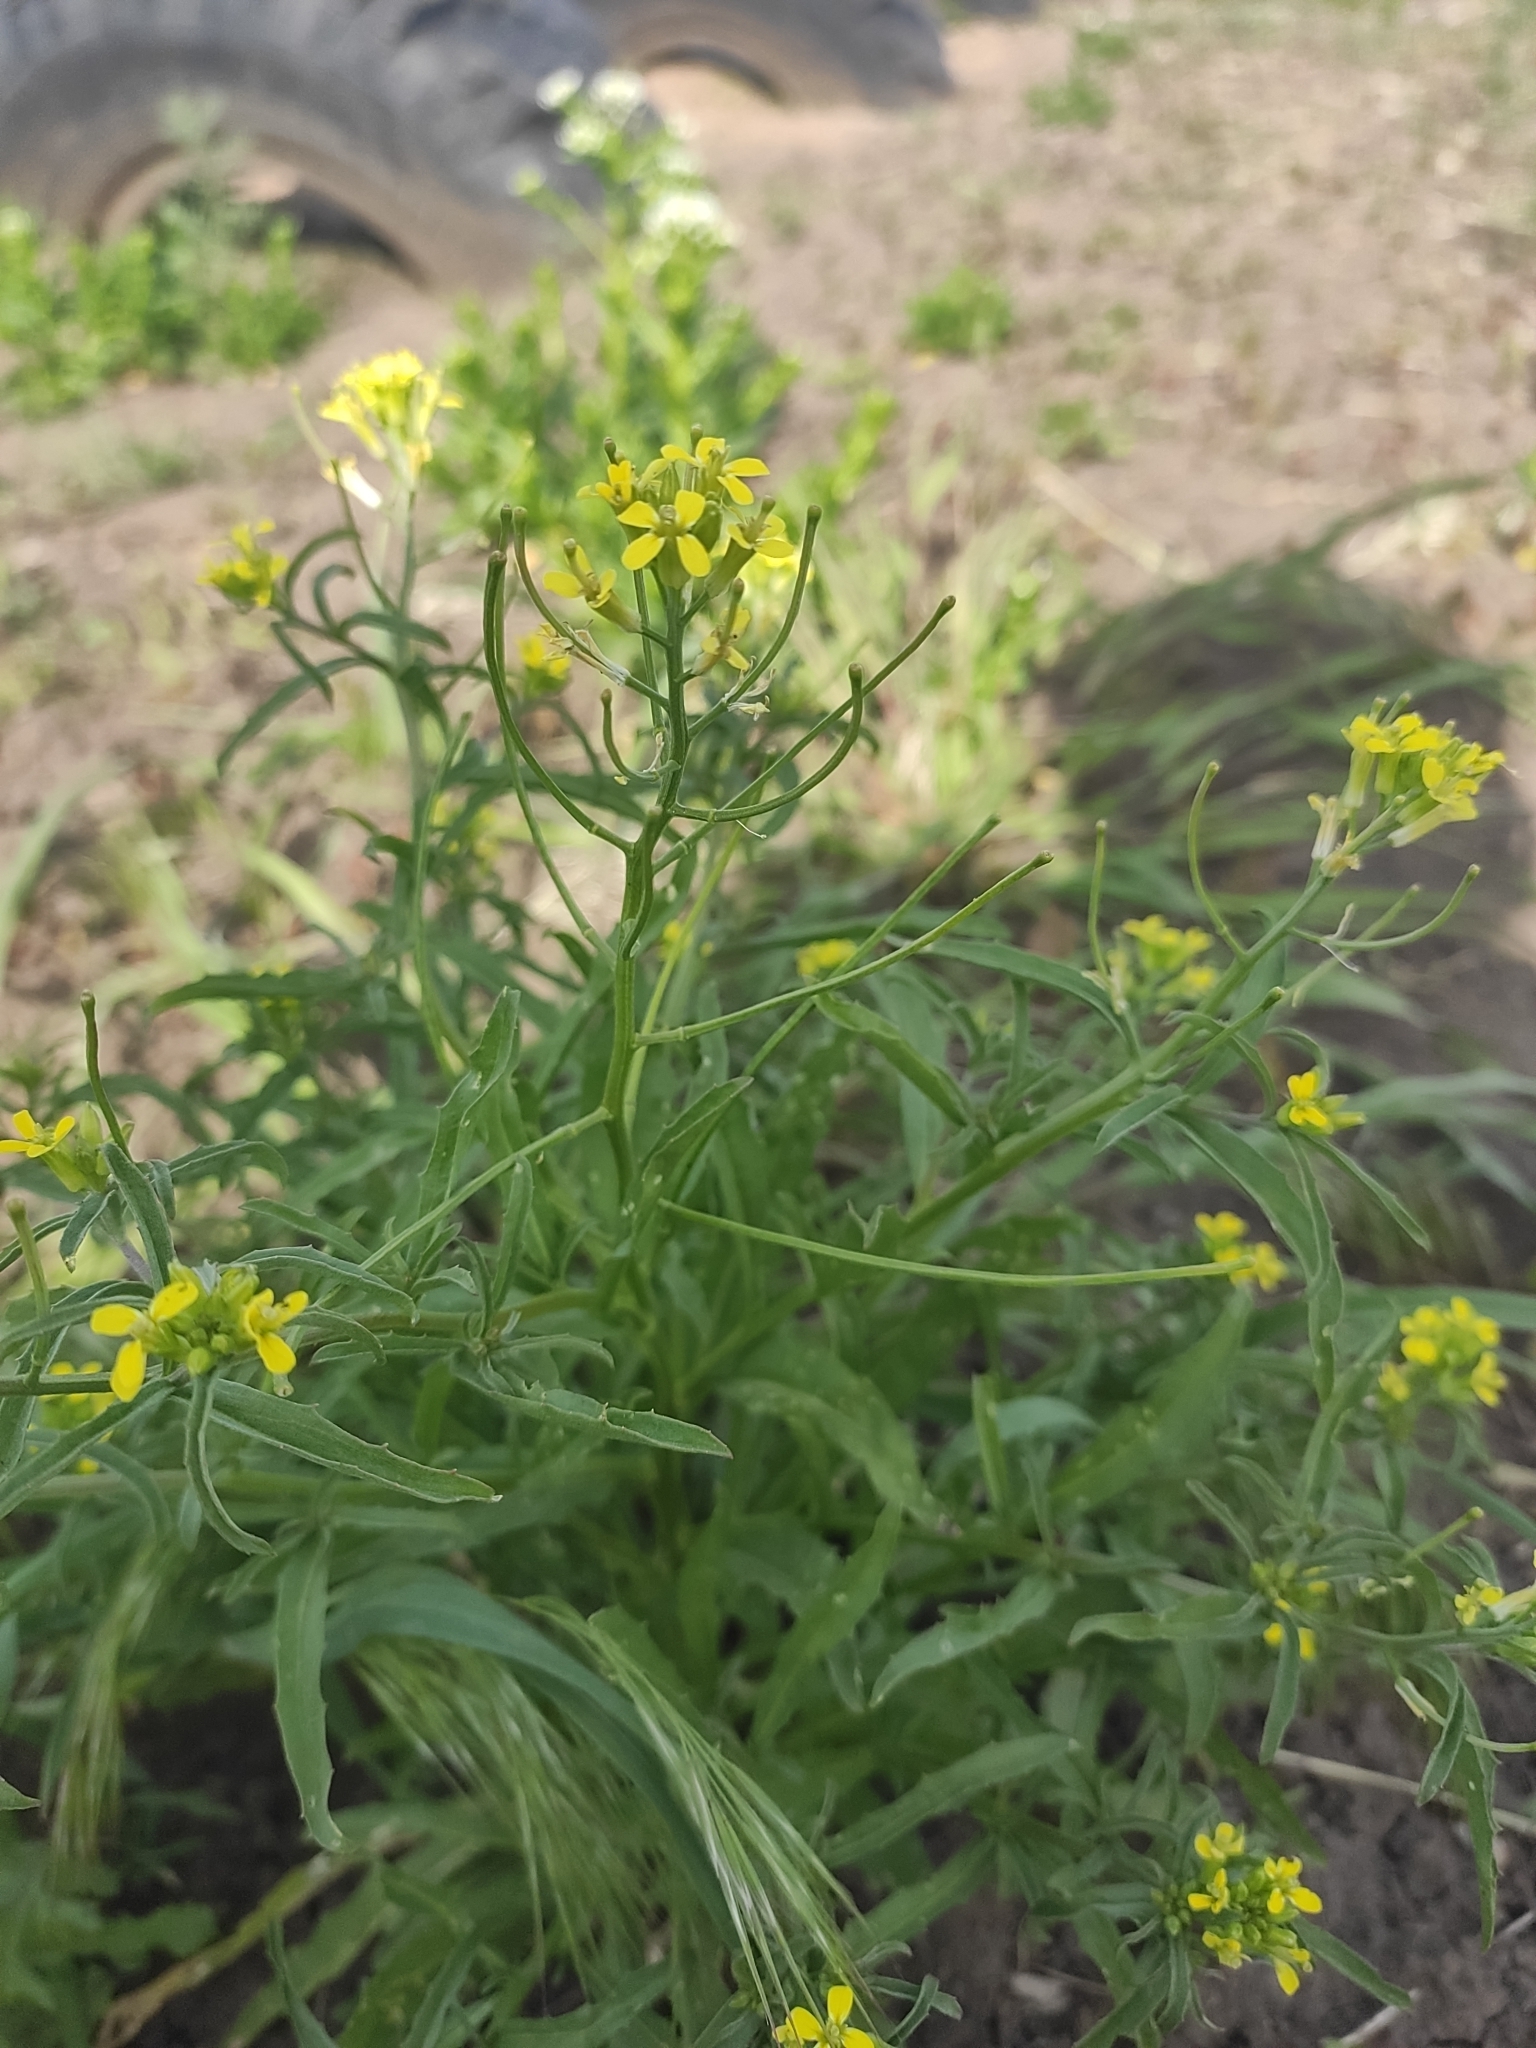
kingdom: Plantae
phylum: Tracheophyta
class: Magnoliopsida
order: Brassicales
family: Brassicaceae
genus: Erysimum
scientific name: Erysimum repandum
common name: Spreading wallflower
